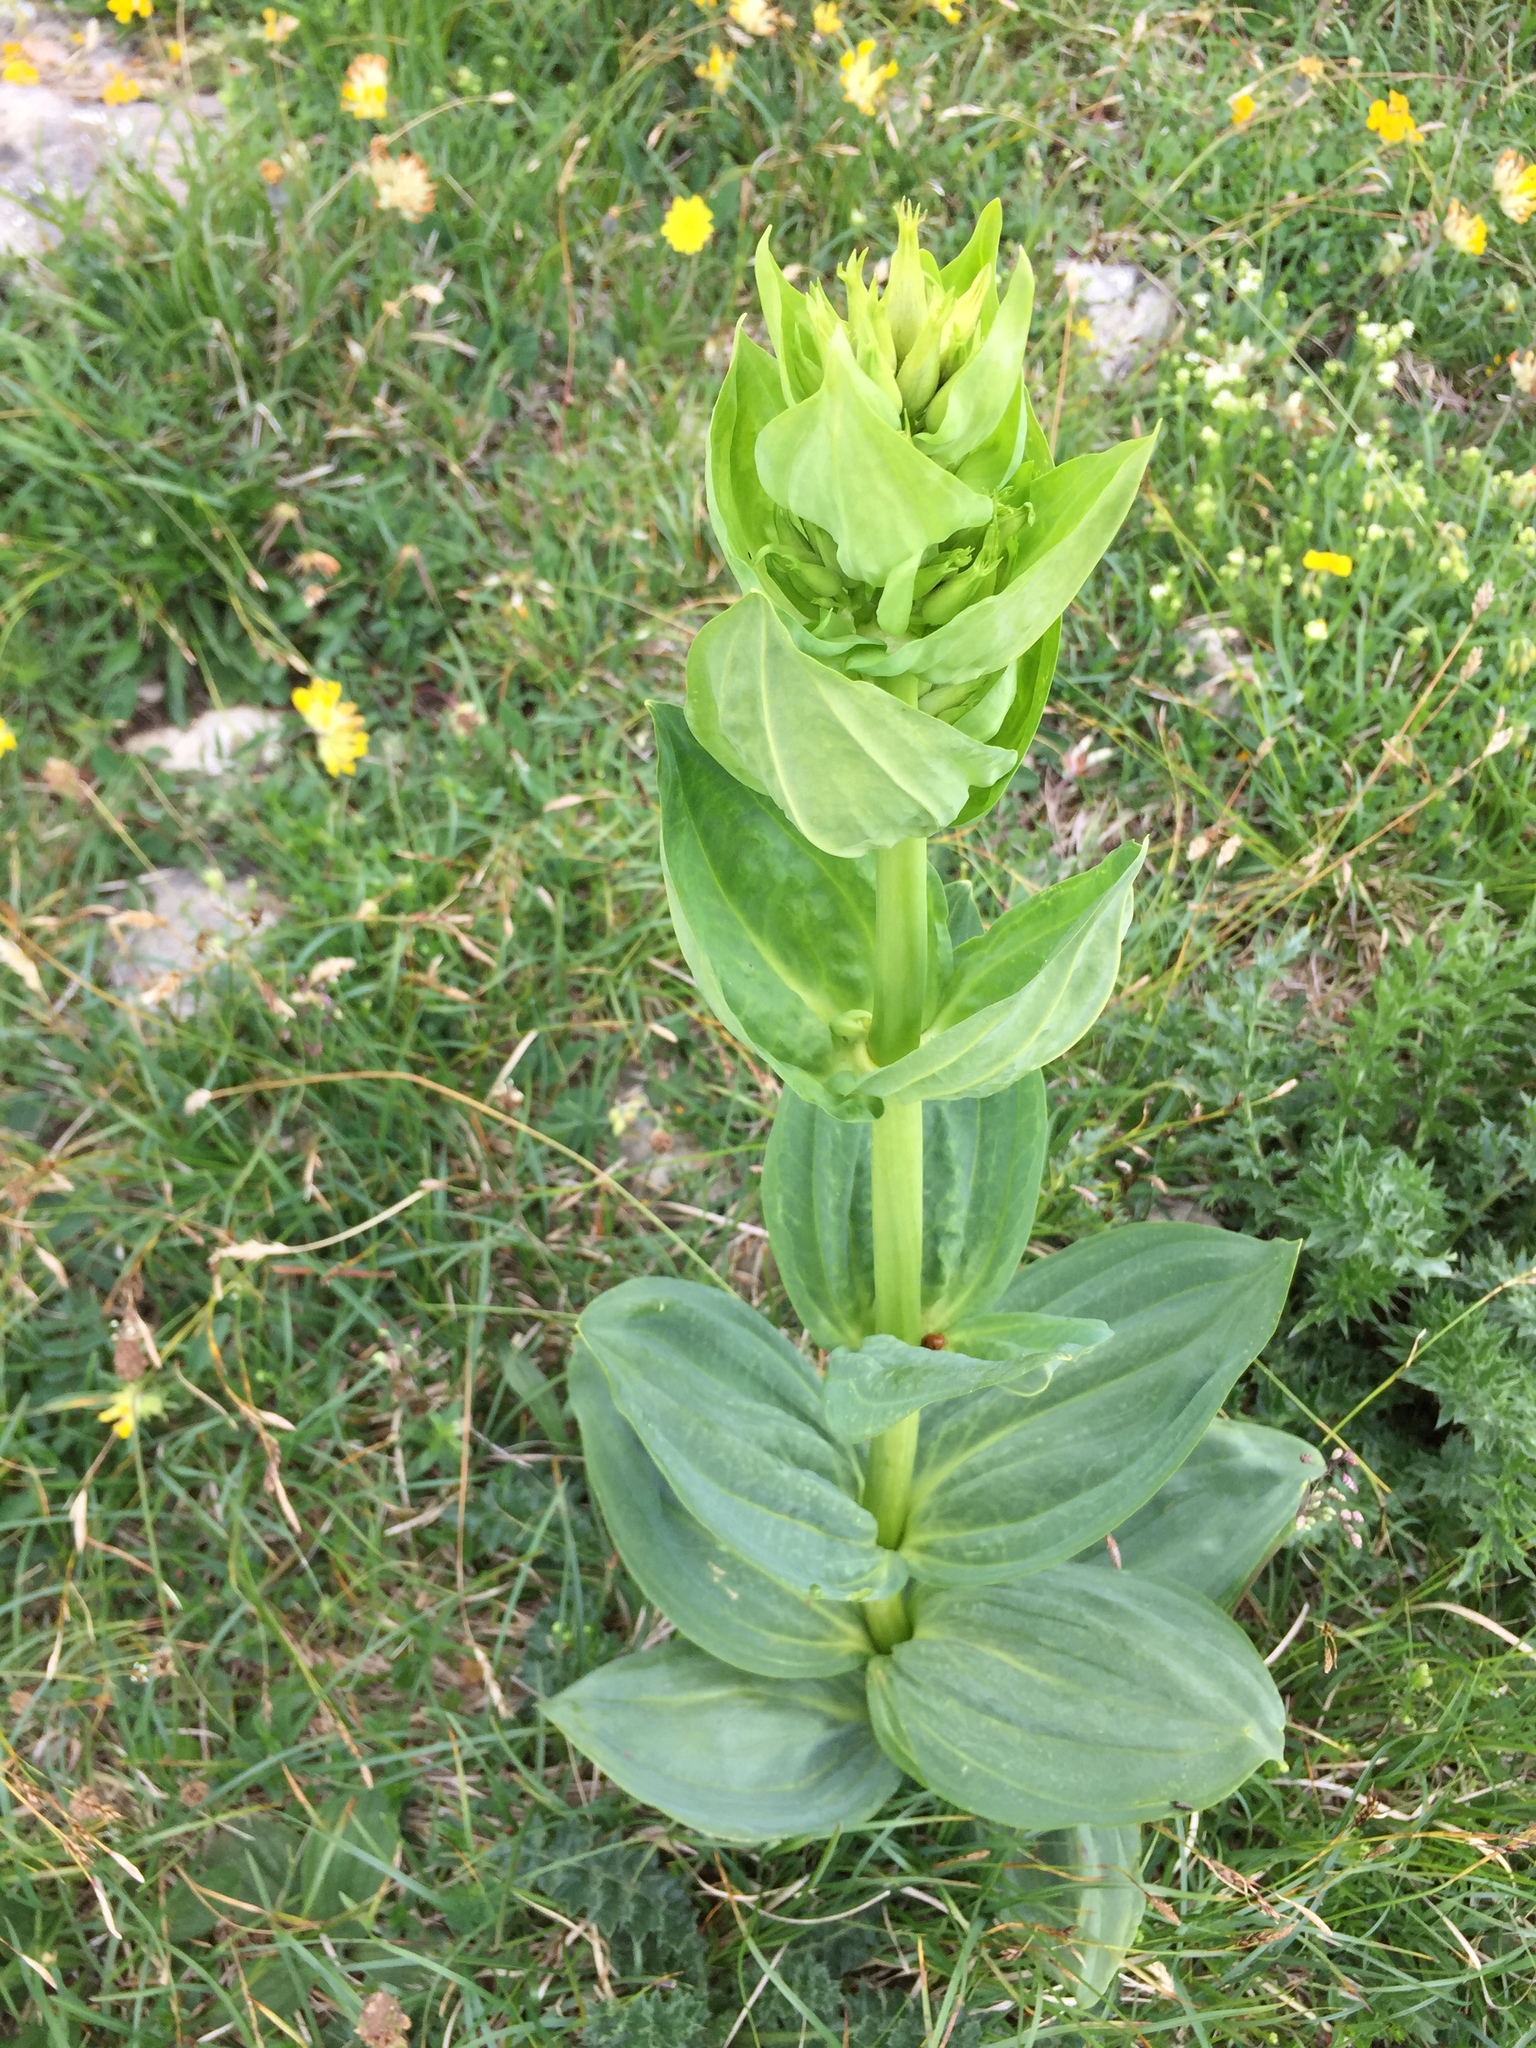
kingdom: Plantae
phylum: Tracheophyta
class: Magnoliopsida
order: Gentianales
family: Gentianaceae
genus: Gentiana
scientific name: Gentiana lutea
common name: Great yellow gentian
